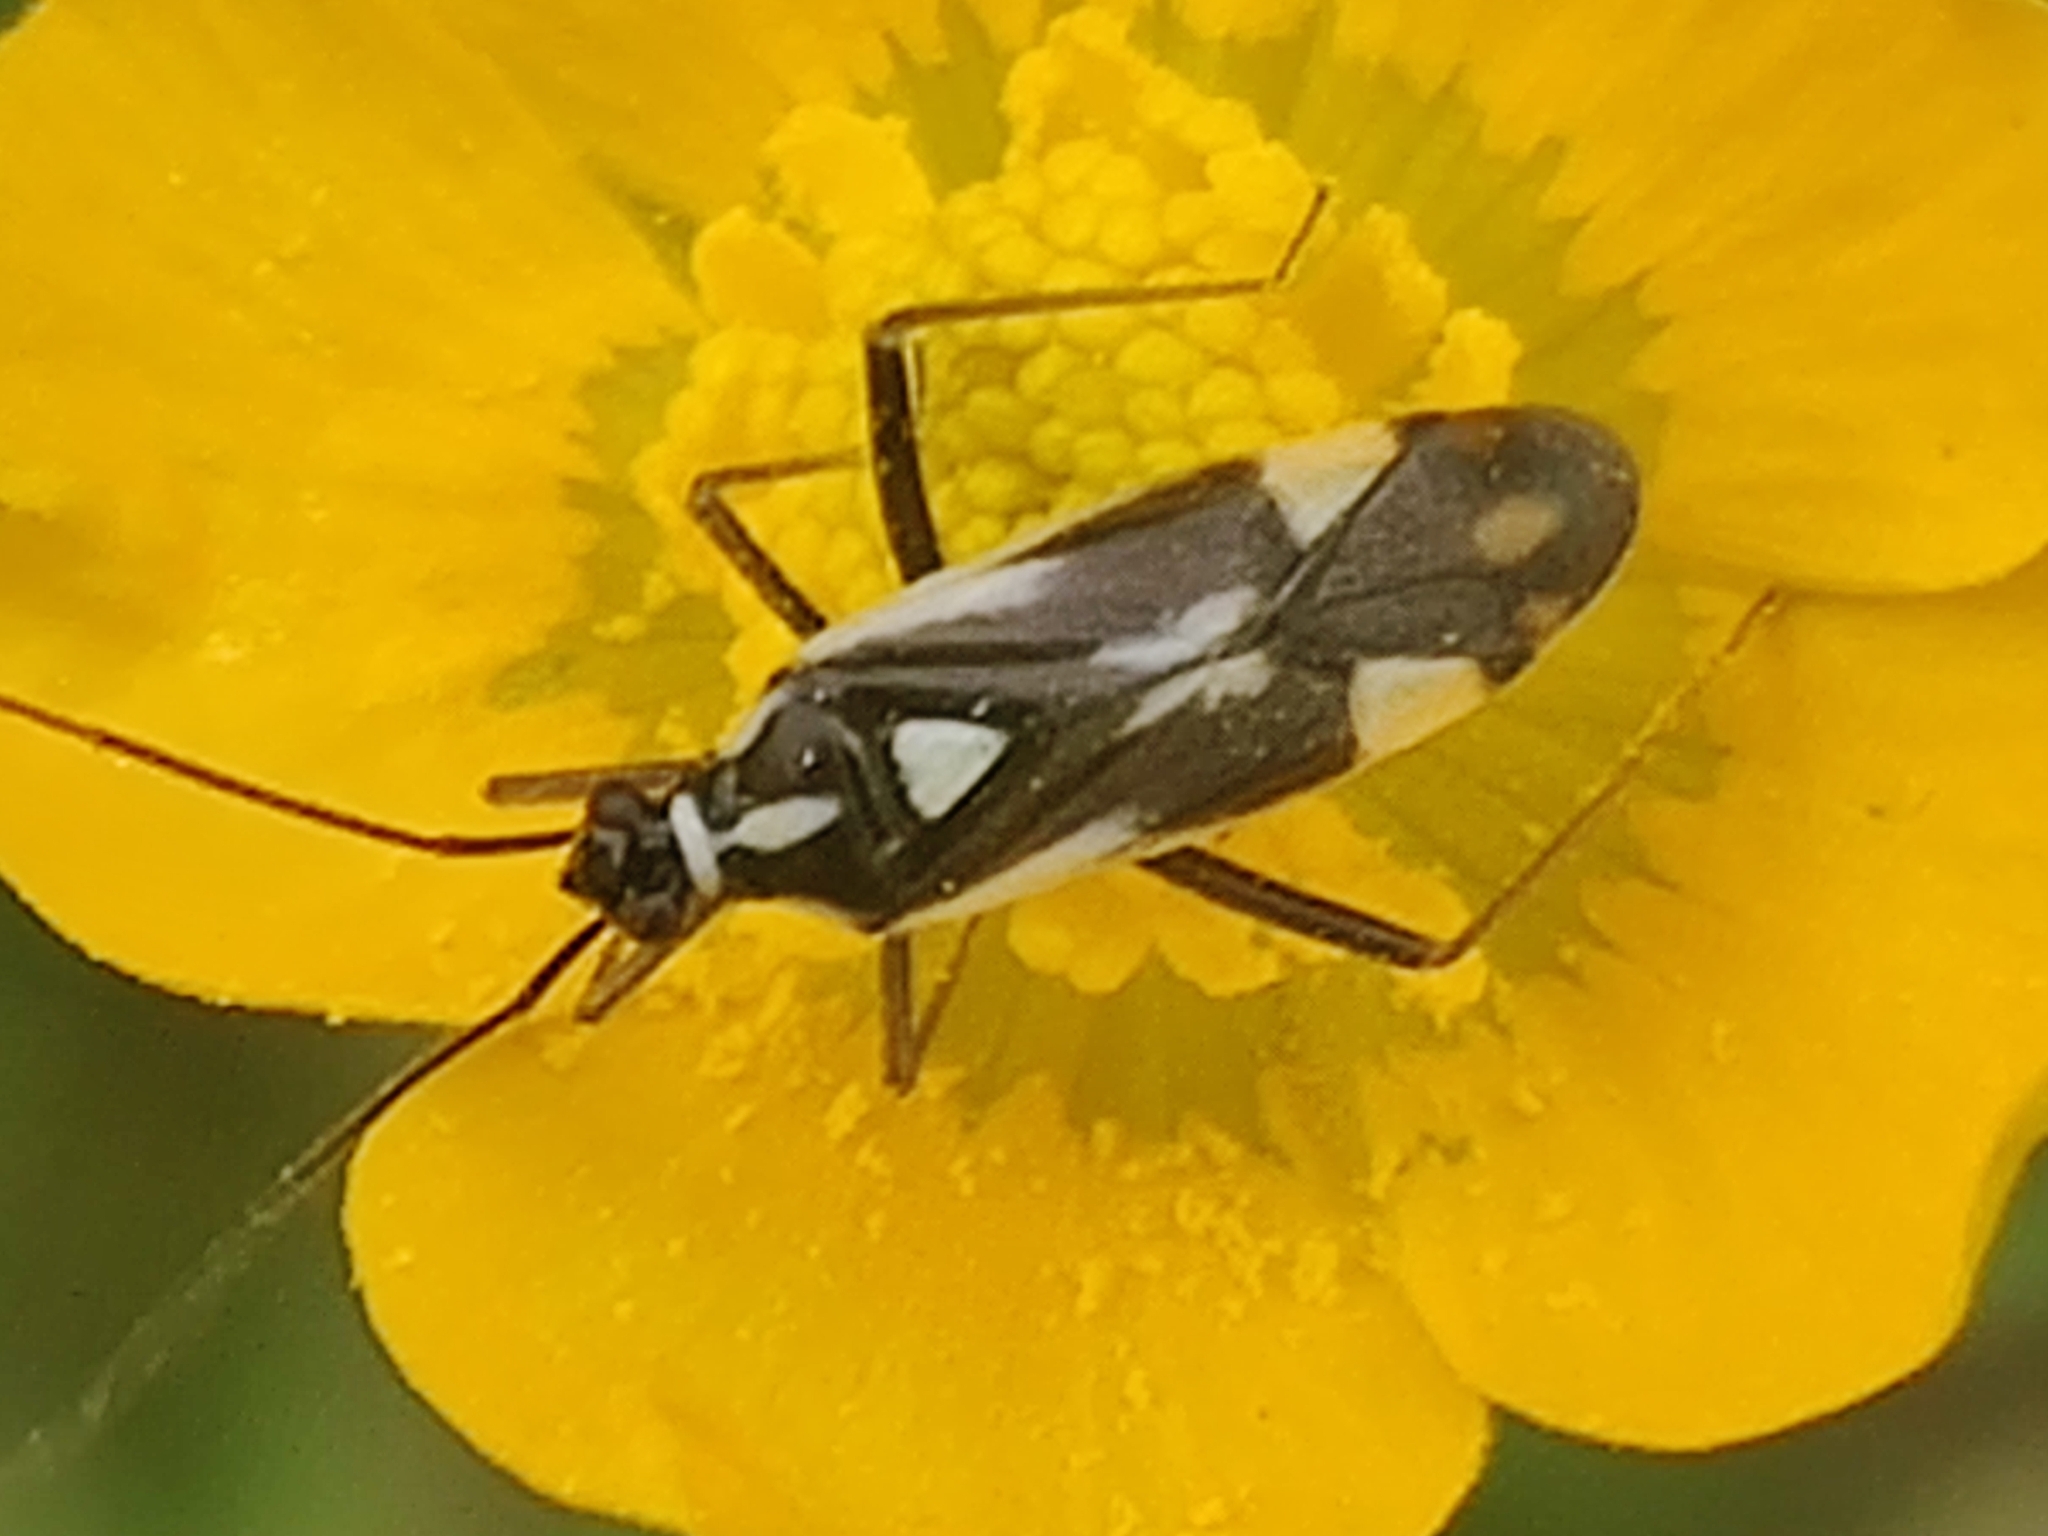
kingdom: Animalia
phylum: Arthropoda
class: Insecta
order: Hemiptera
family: Miridae
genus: Grypocoris
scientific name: Grypocoris stysi
